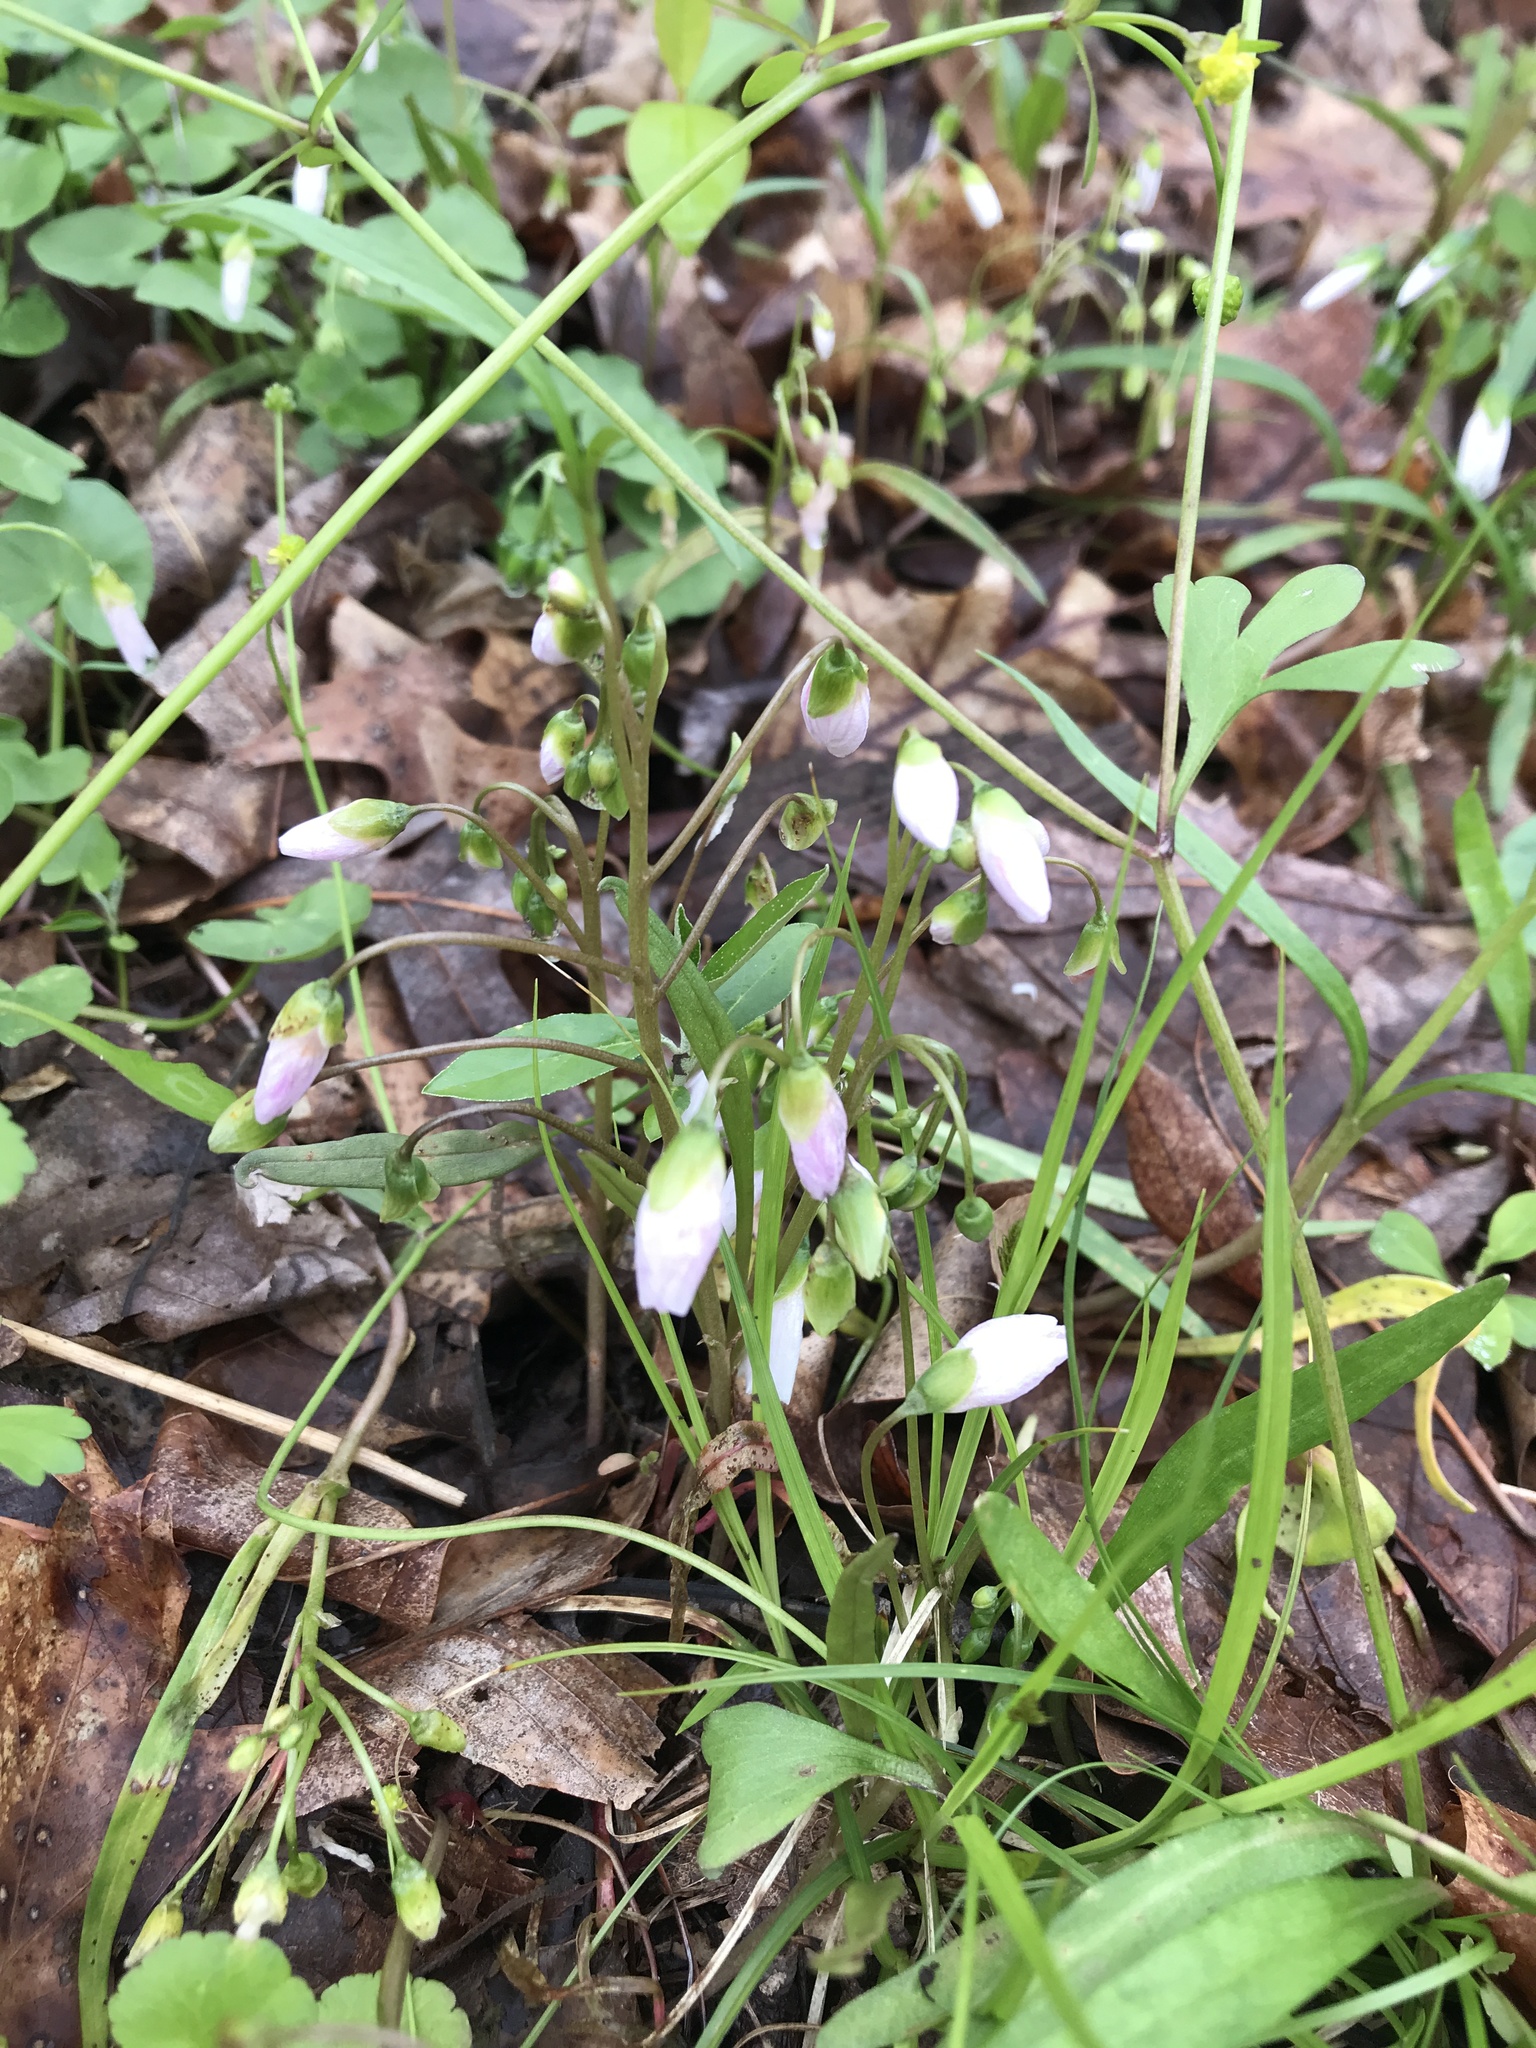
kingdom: Plantae
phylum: Tracheophyta
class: Magnoliopsida
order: Caryophyllales
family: Montiaceae
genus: Claytonia
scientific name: Claytonia virginica
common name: Virginia springbeauty
